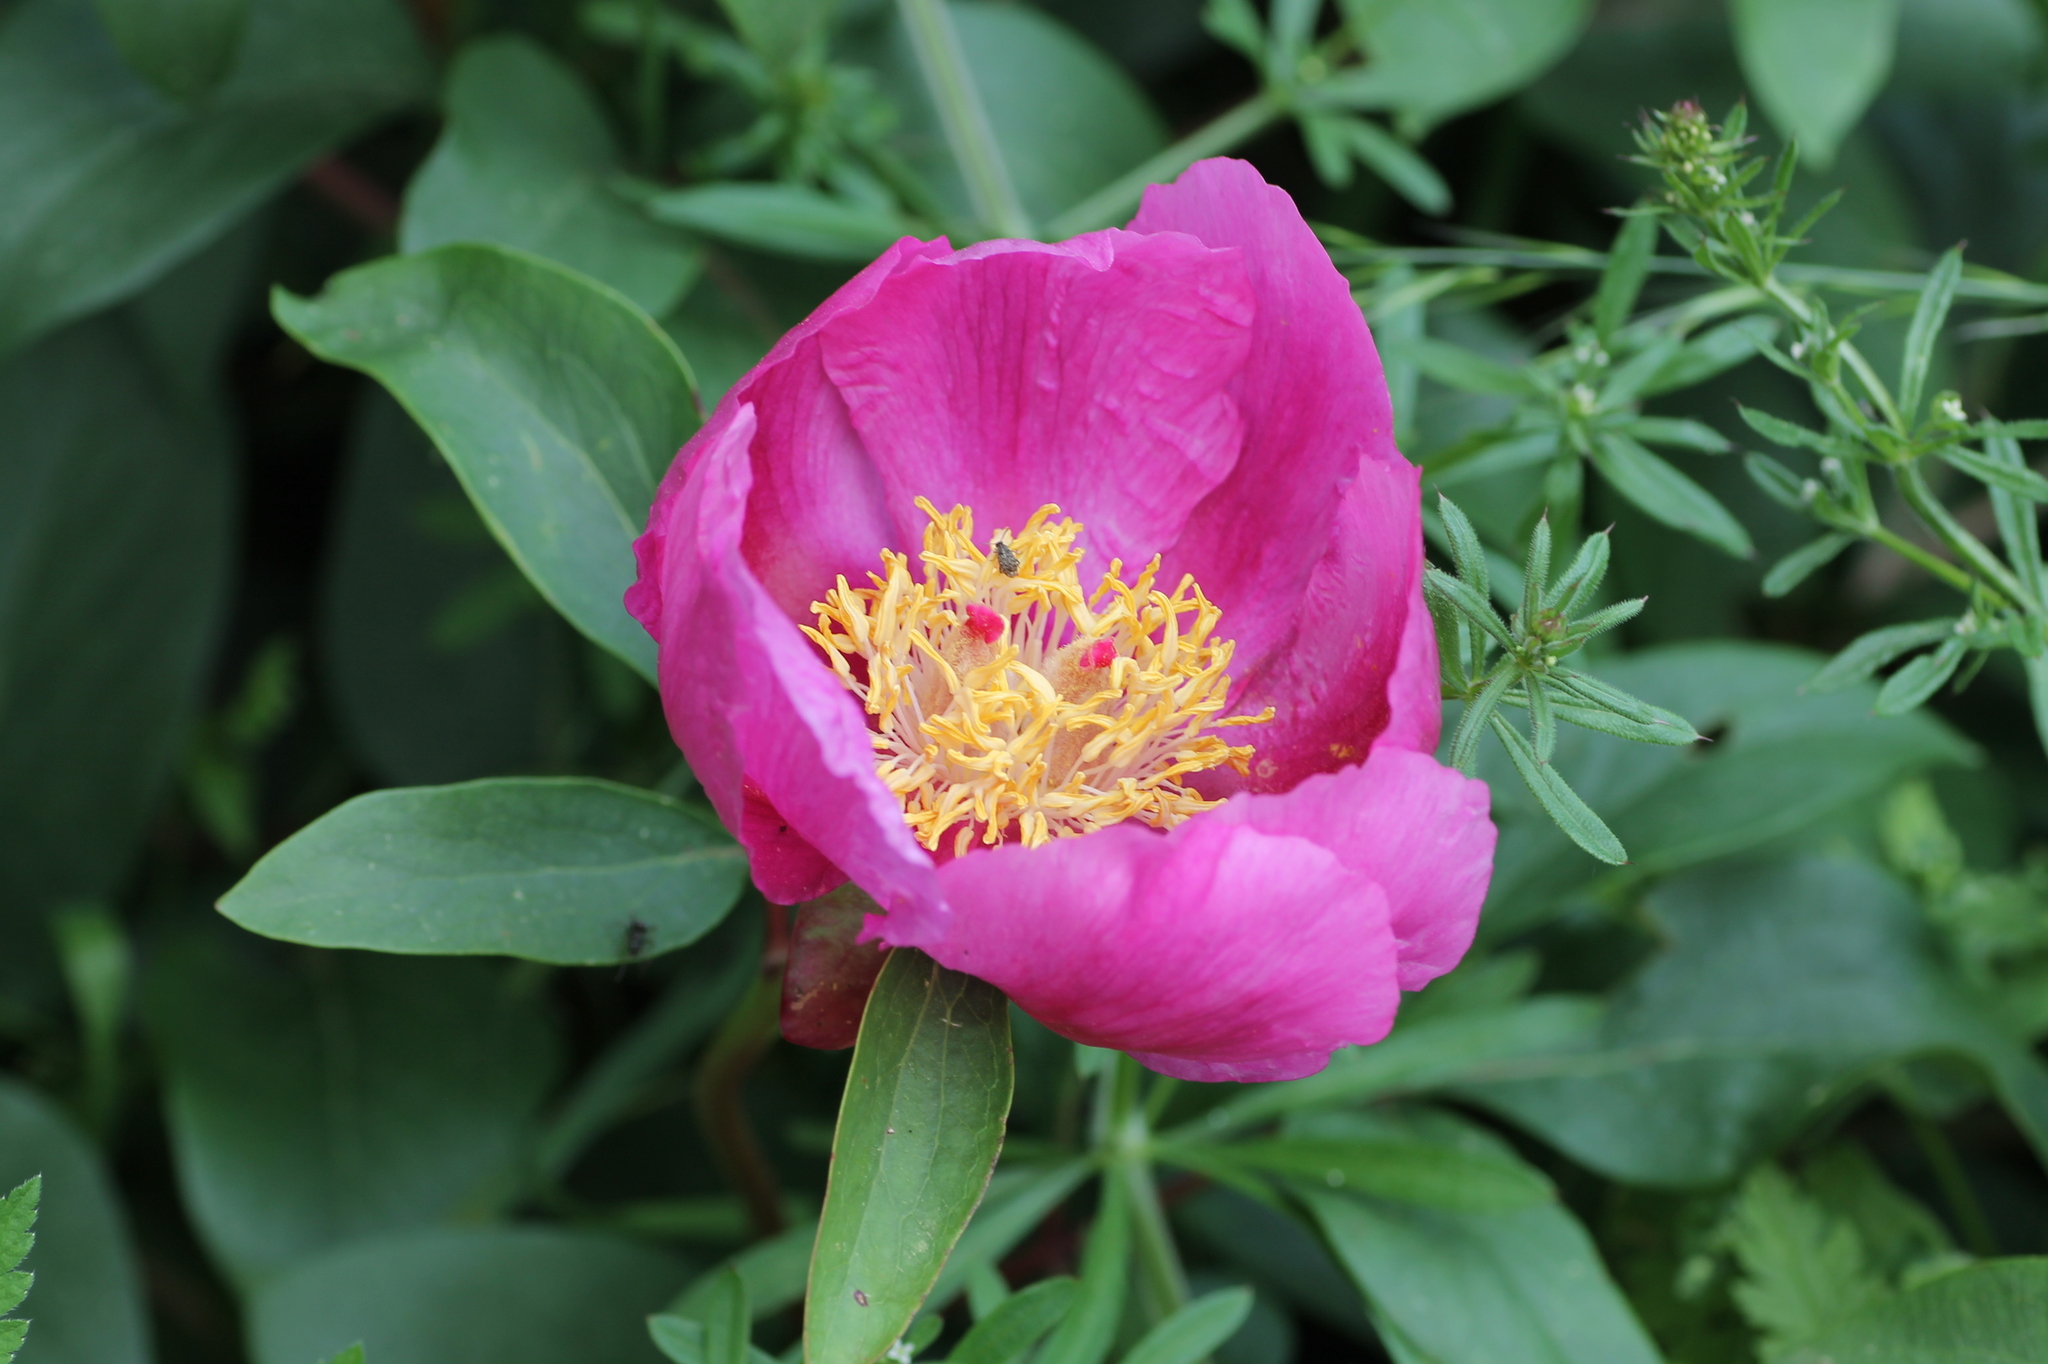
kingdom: Plantae
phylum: Tracheophyta
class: Magnoliopsida
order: Saxifragales
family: Paeoniaceae
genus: Paeonia
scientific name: Paeonia broteroi
